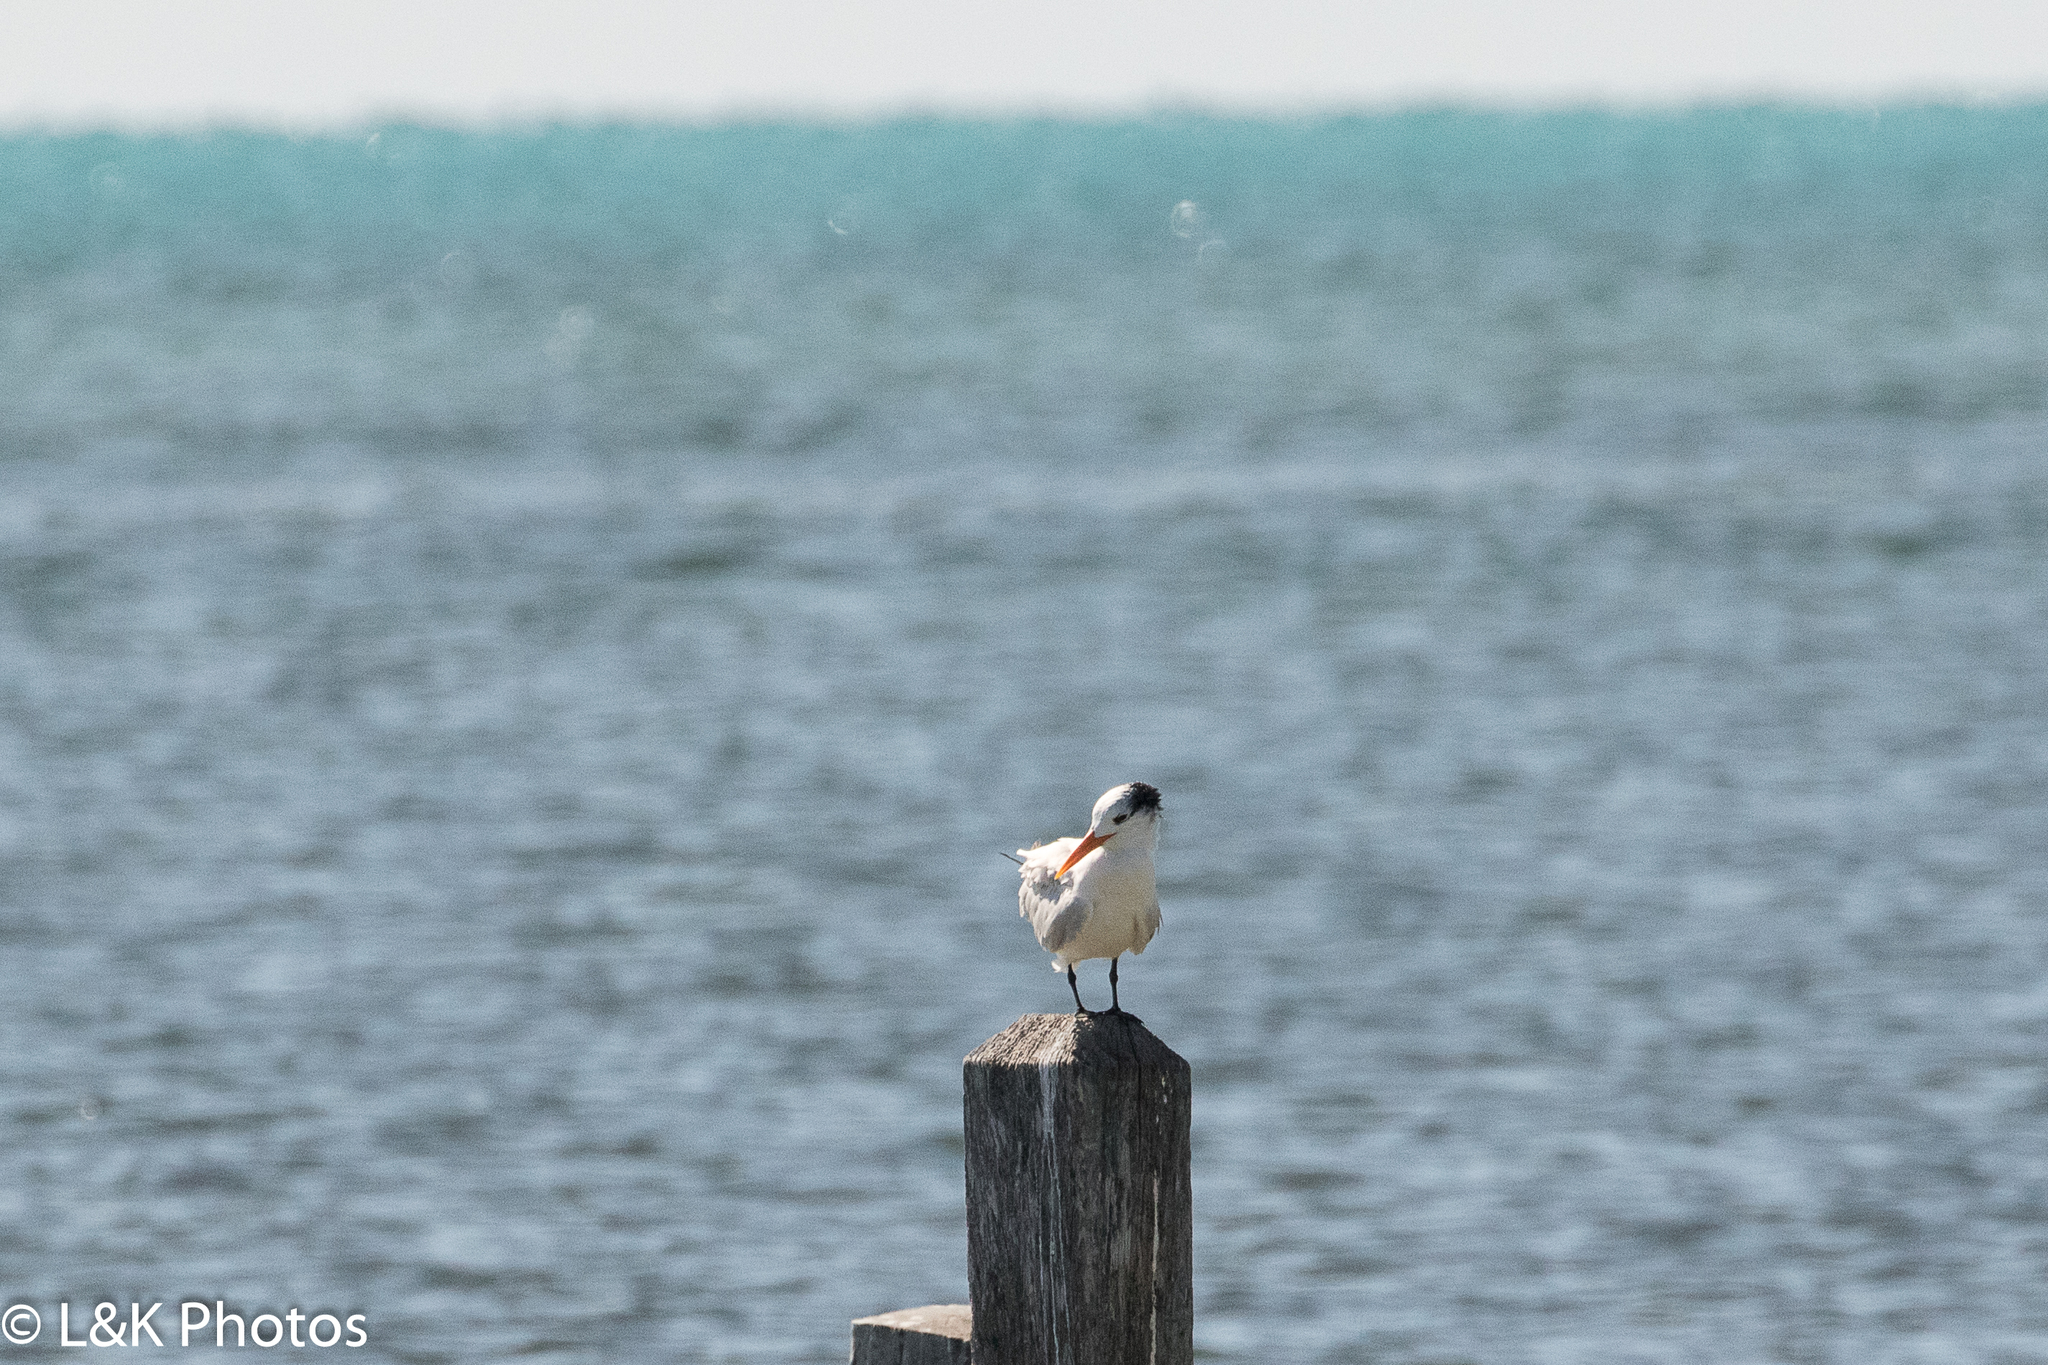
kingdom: Animalia
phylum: Chordata
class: Aves
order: Charadriiformes
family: Laridae
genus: Thalasseus
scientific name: Thalasseus maximus
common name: Royal tern
